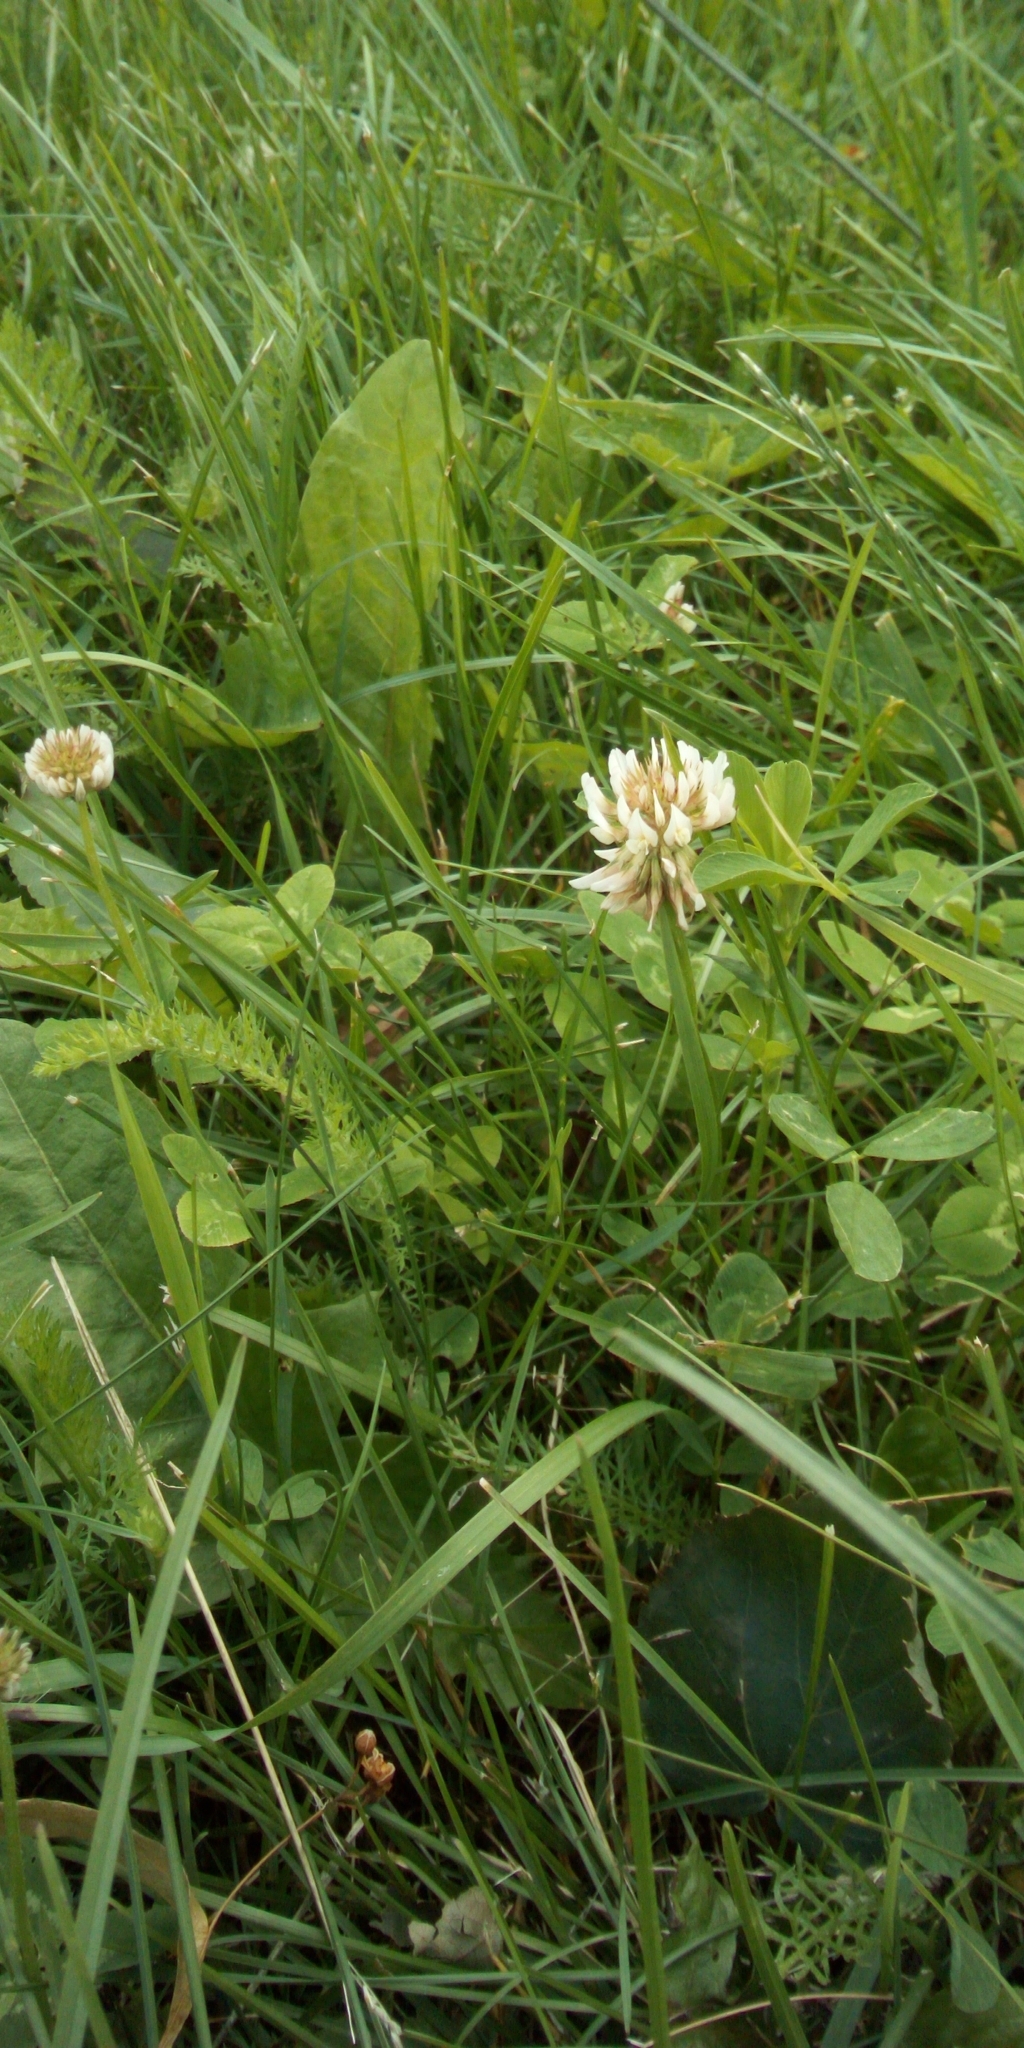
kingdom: Plantae
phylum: Tracheophyta
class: Magnoliopsida
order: Fabales
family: Fabaceae
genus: Trifolium
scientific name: Trifolium repens
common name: White clover
